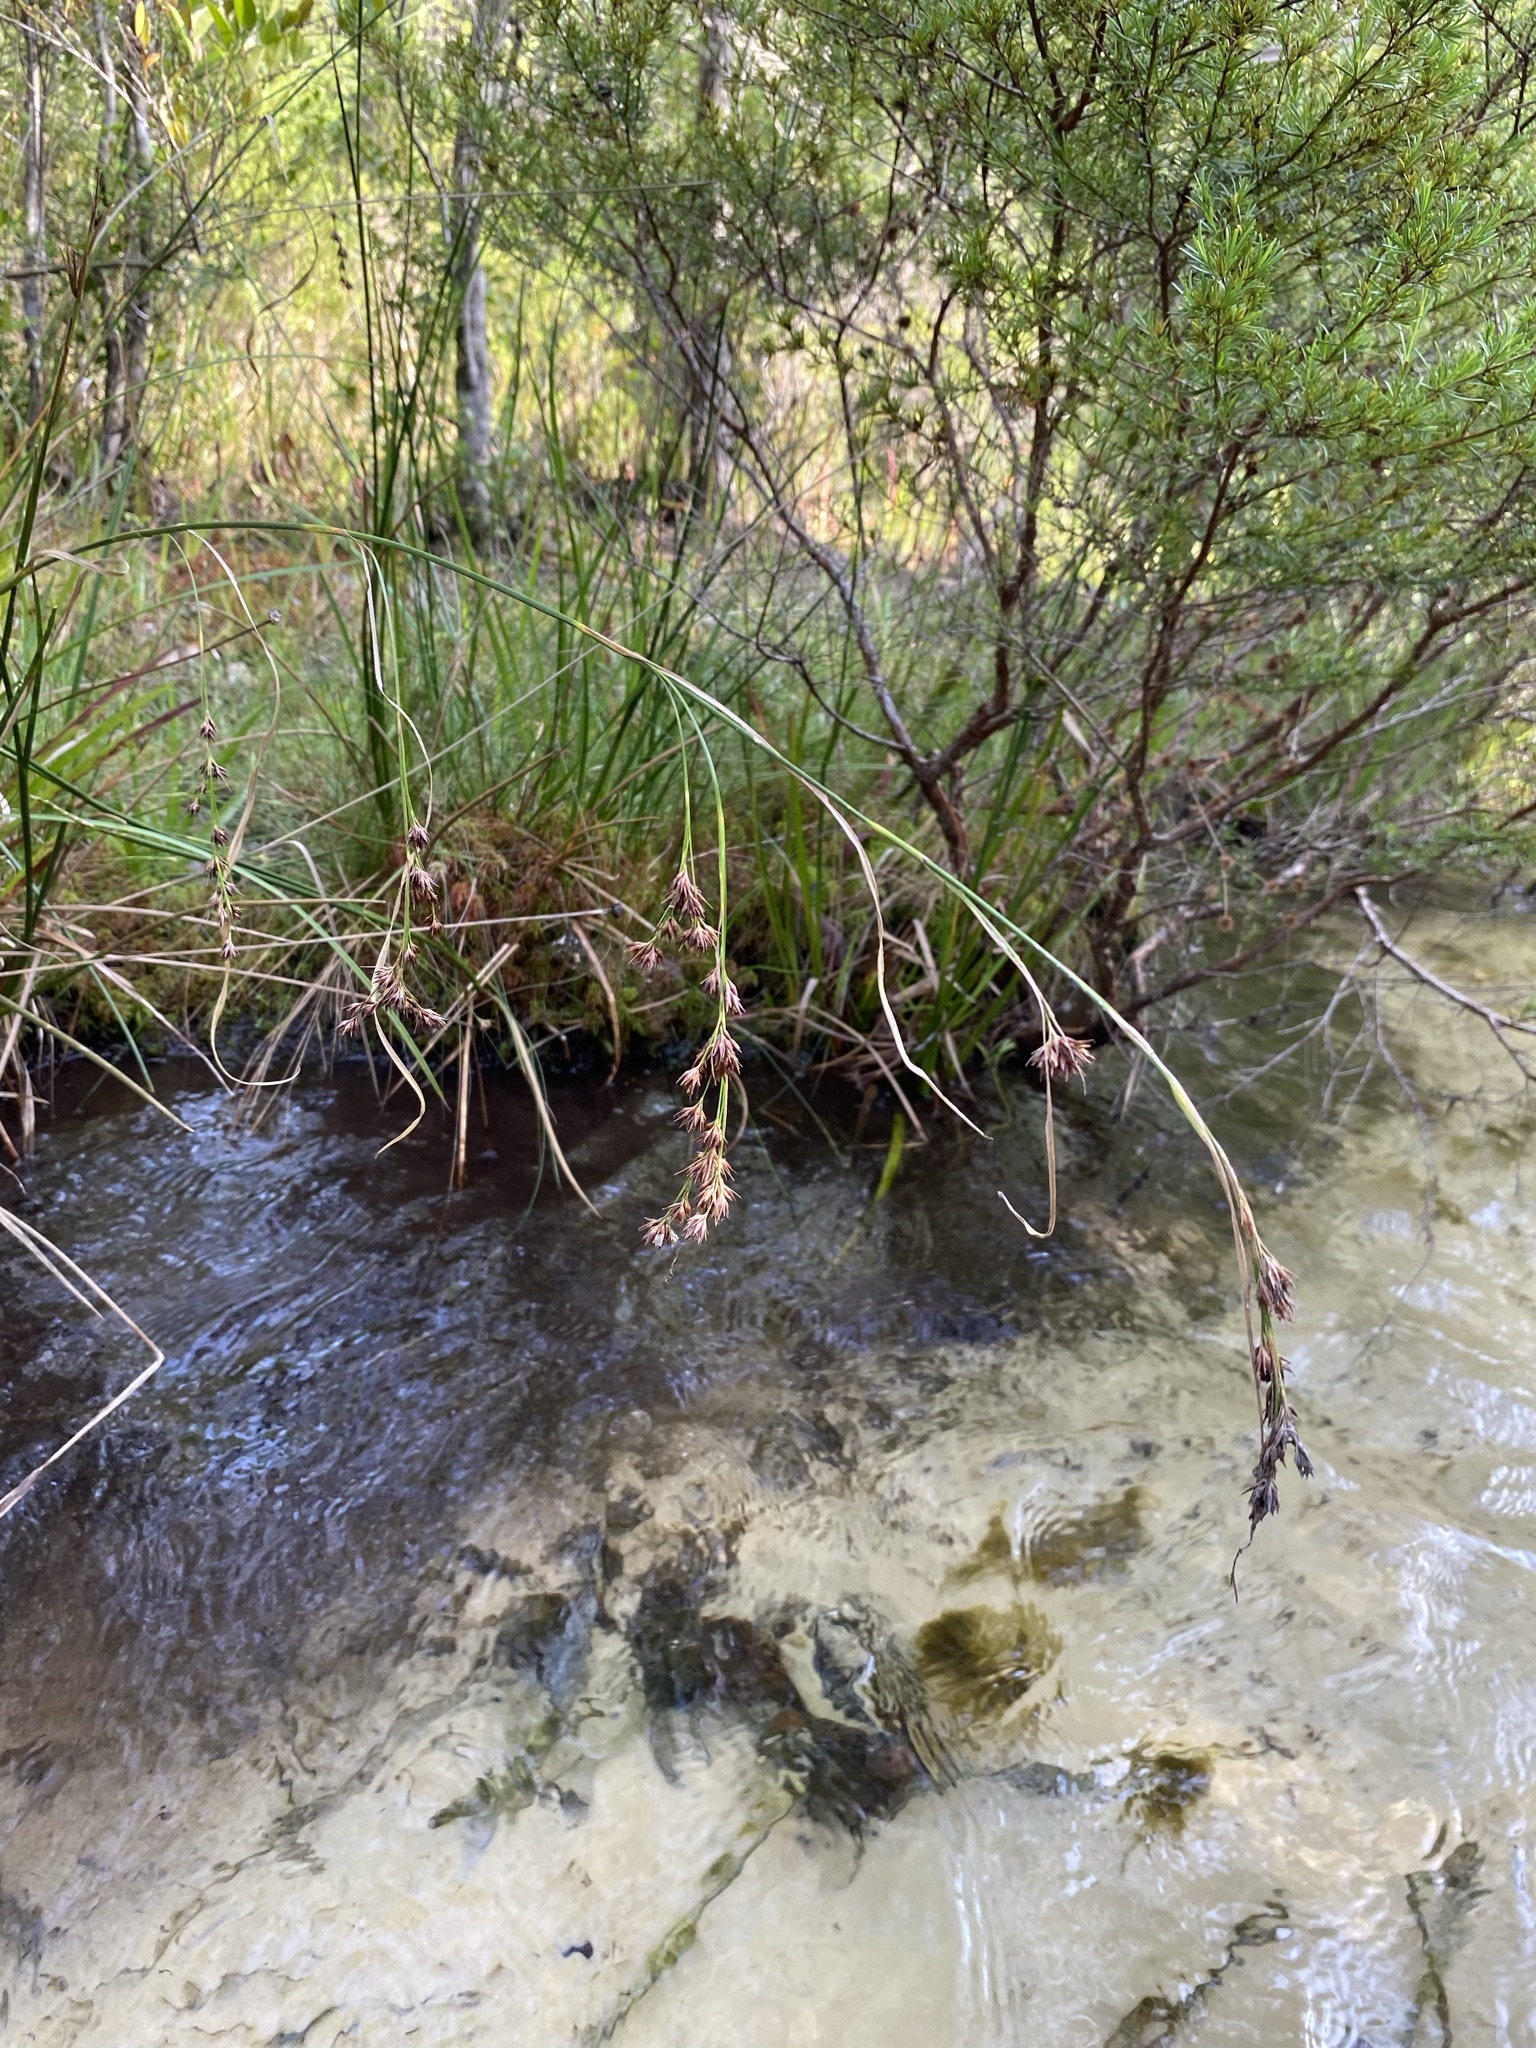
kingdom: Plantae
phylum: Tracheophyta
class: Liliopsida
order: Poales
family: Cyperaceae
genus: Rhynchospora
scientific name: Rhynchospora glomerata
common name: Cluster beak sedge
